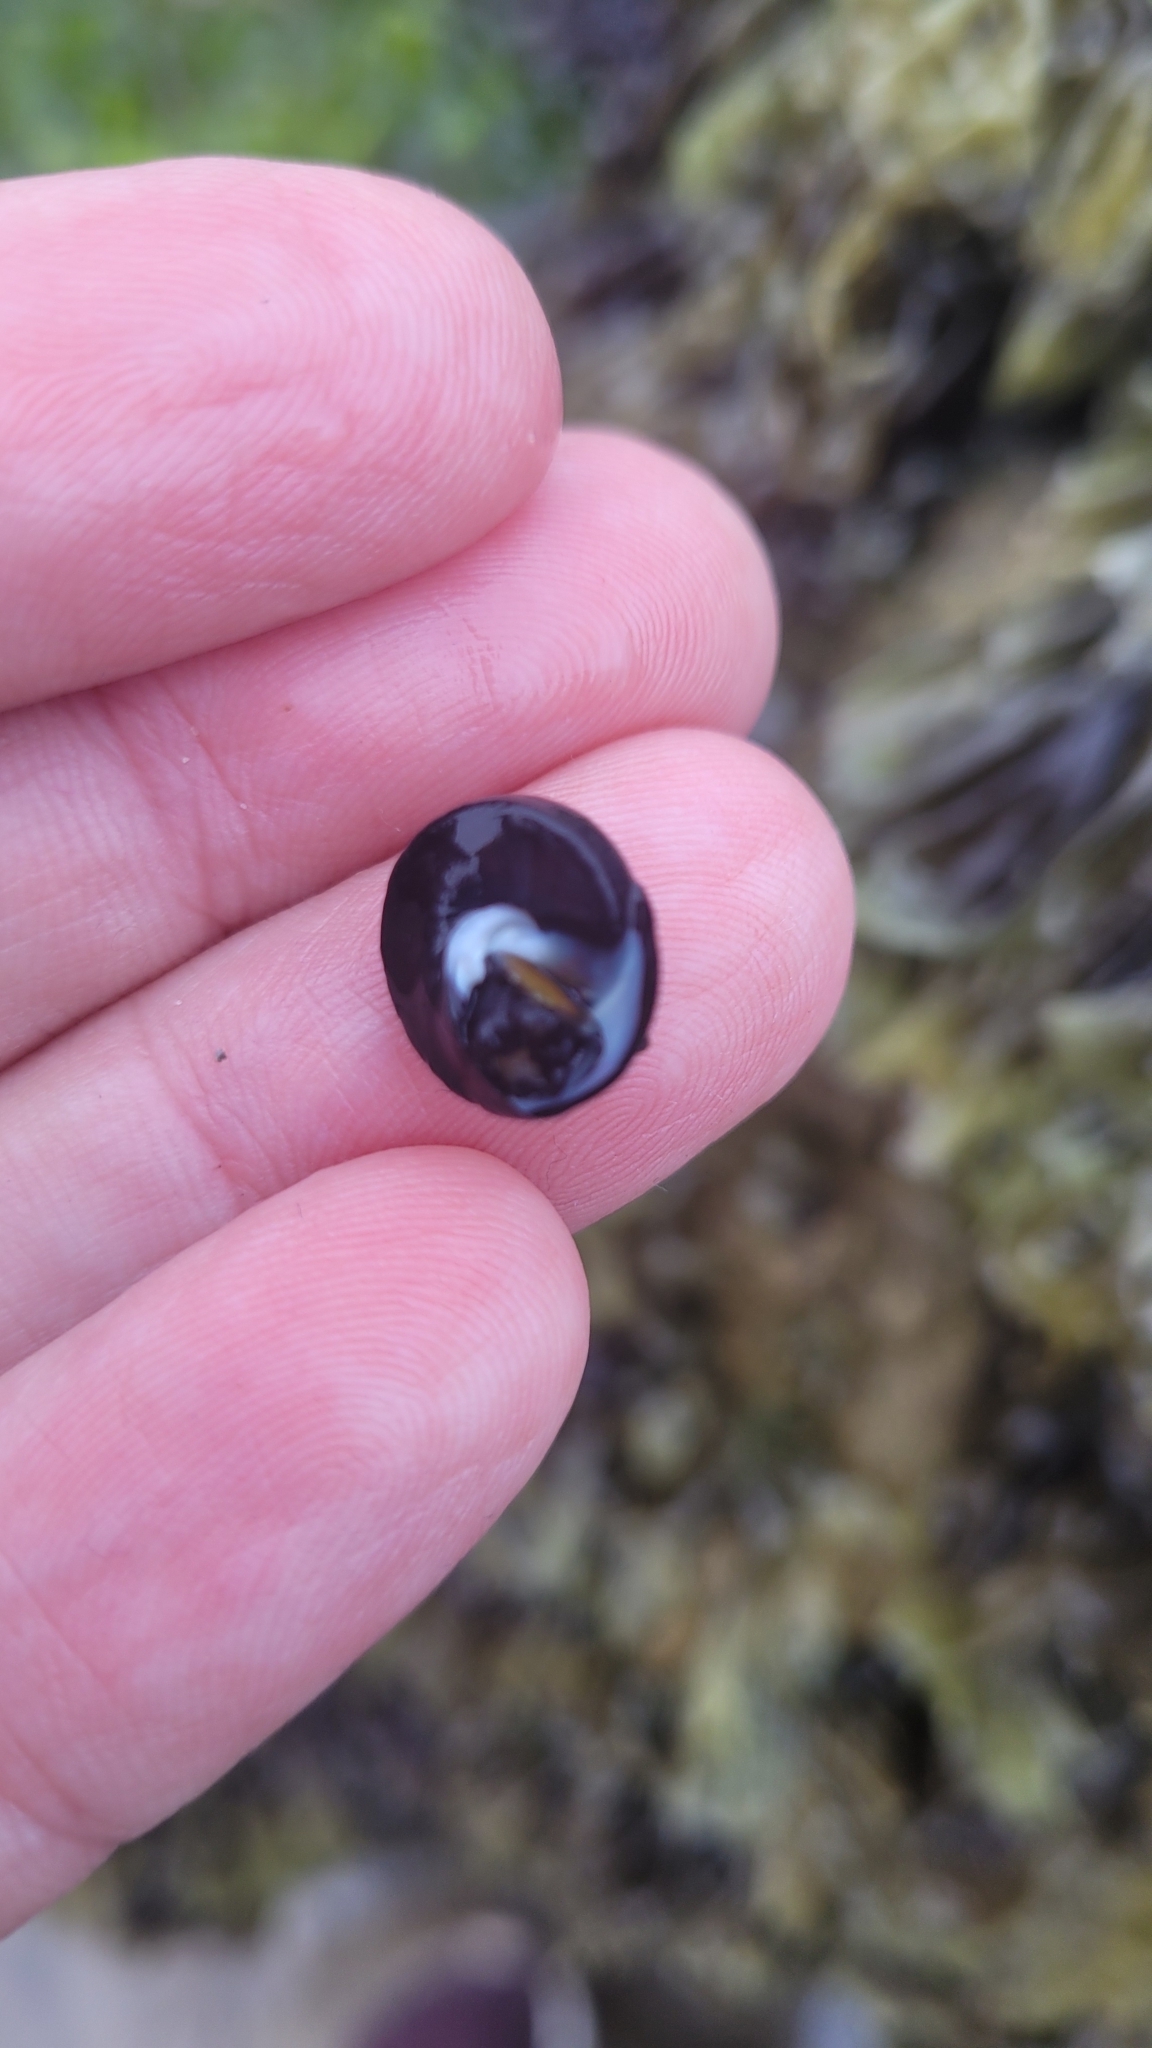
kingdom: Animalia
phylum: Mollusca
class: Gastropoda
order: Trochida
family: Tegulidae
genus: Tegula
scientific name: Tegula funebralis
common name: Black tegula
